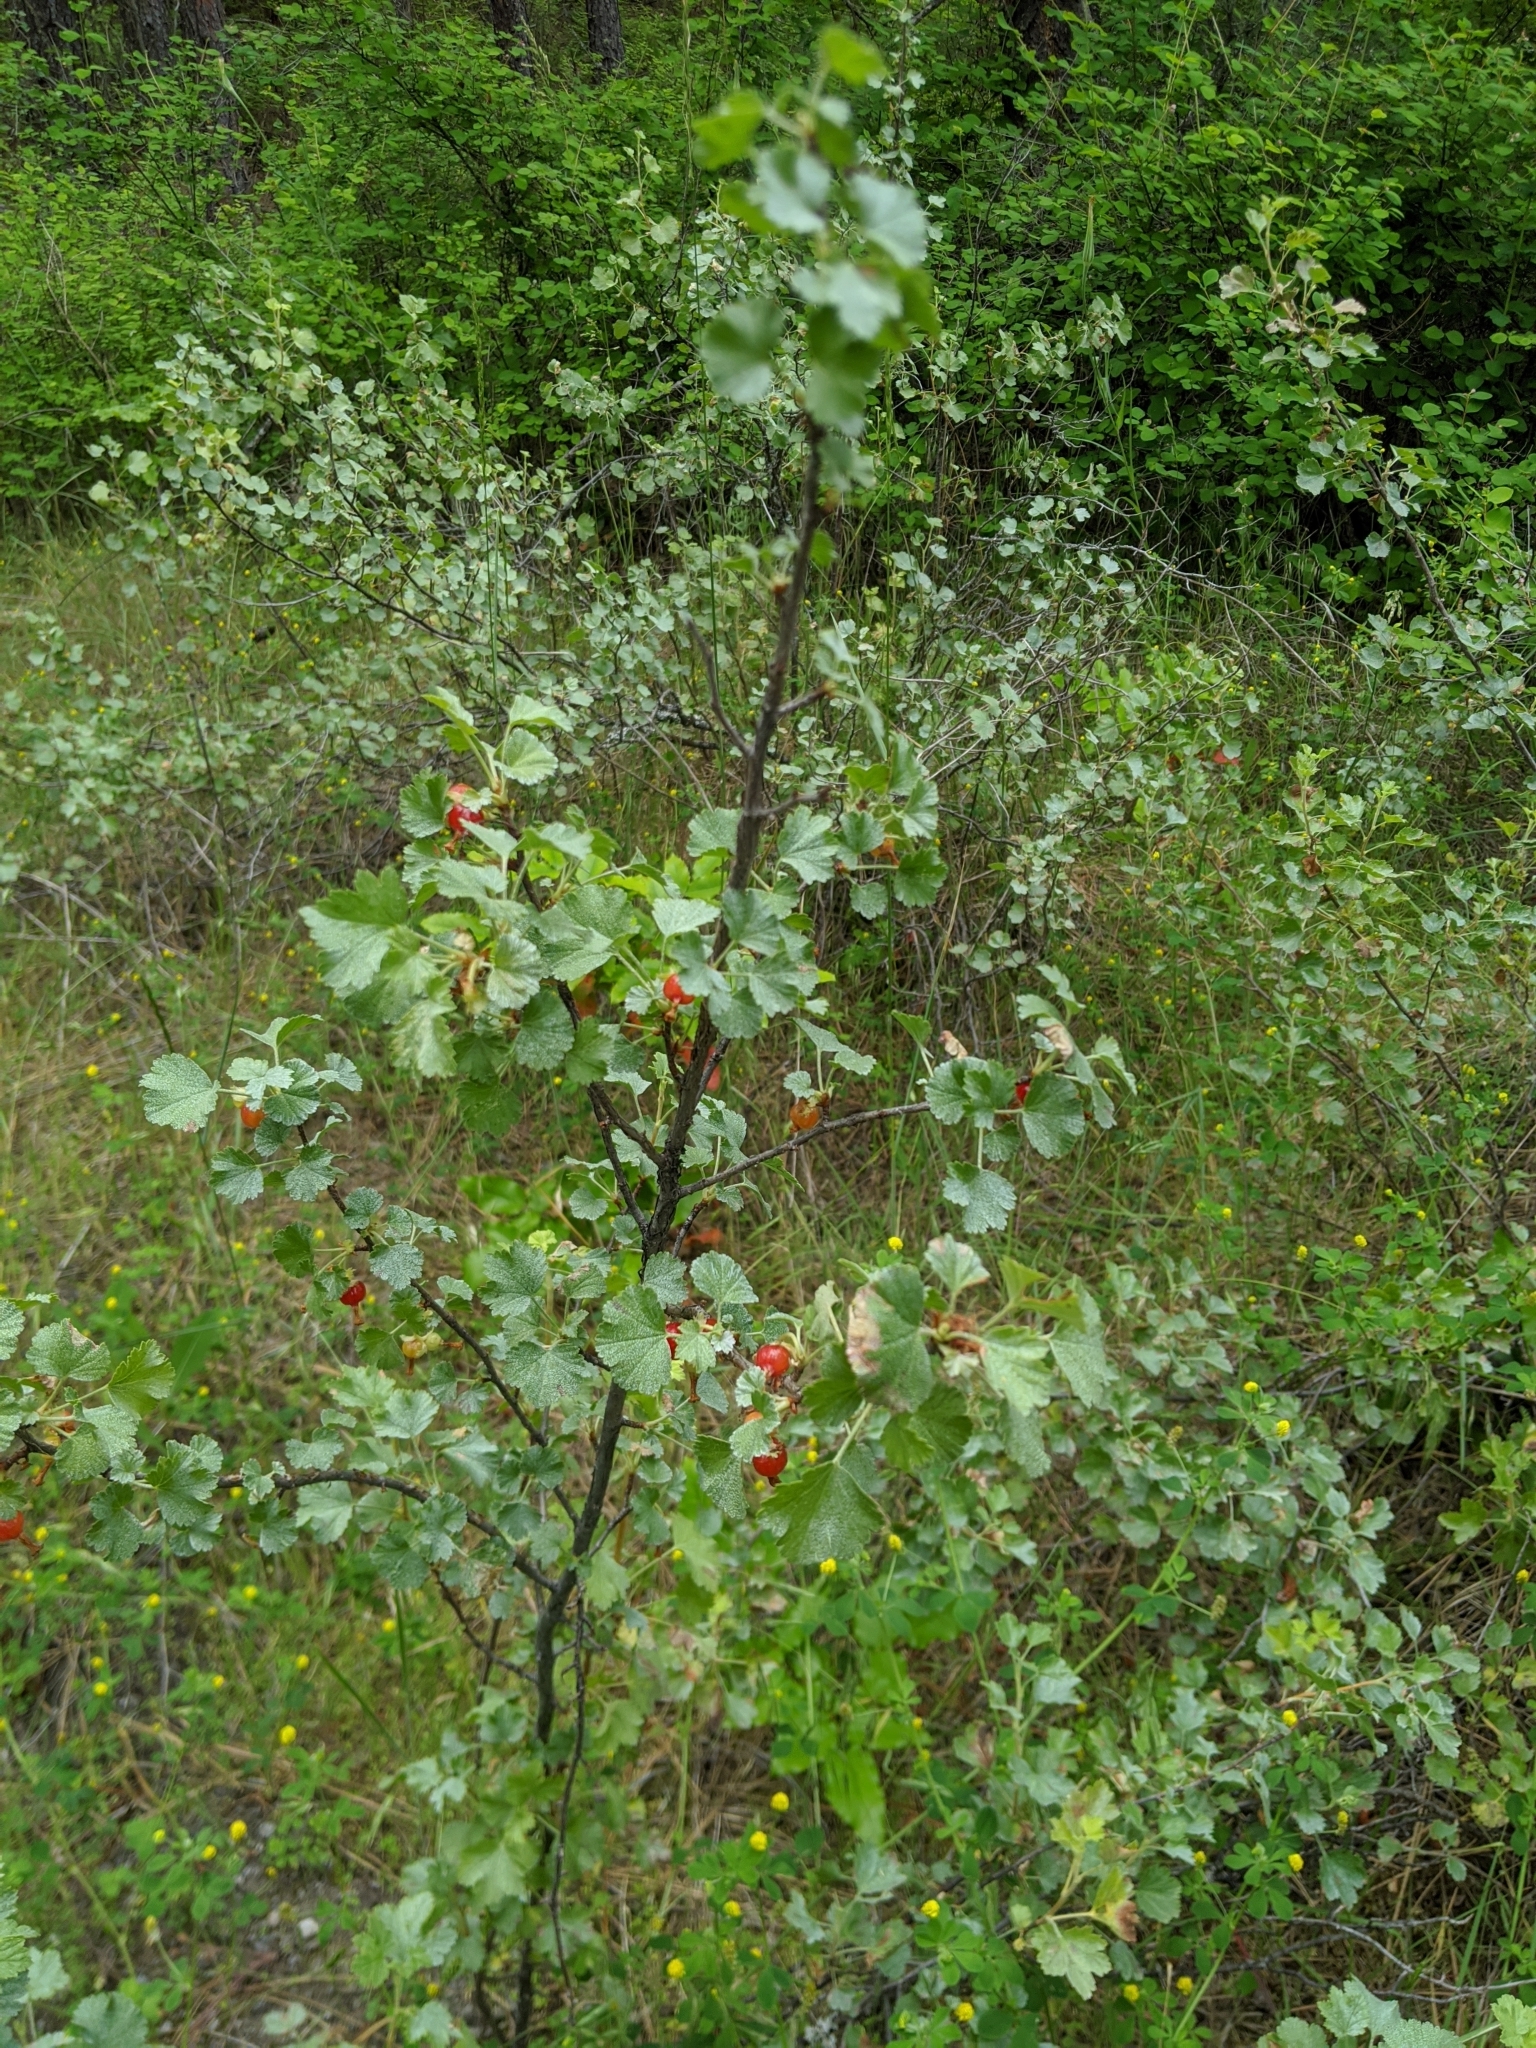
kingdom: Plantae
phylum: Tracheophyta
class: Magnoliopsida
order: Saxifragales
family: Grossulariaceae
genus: Ribes
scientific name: Ribes cereum
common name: Wax currant
